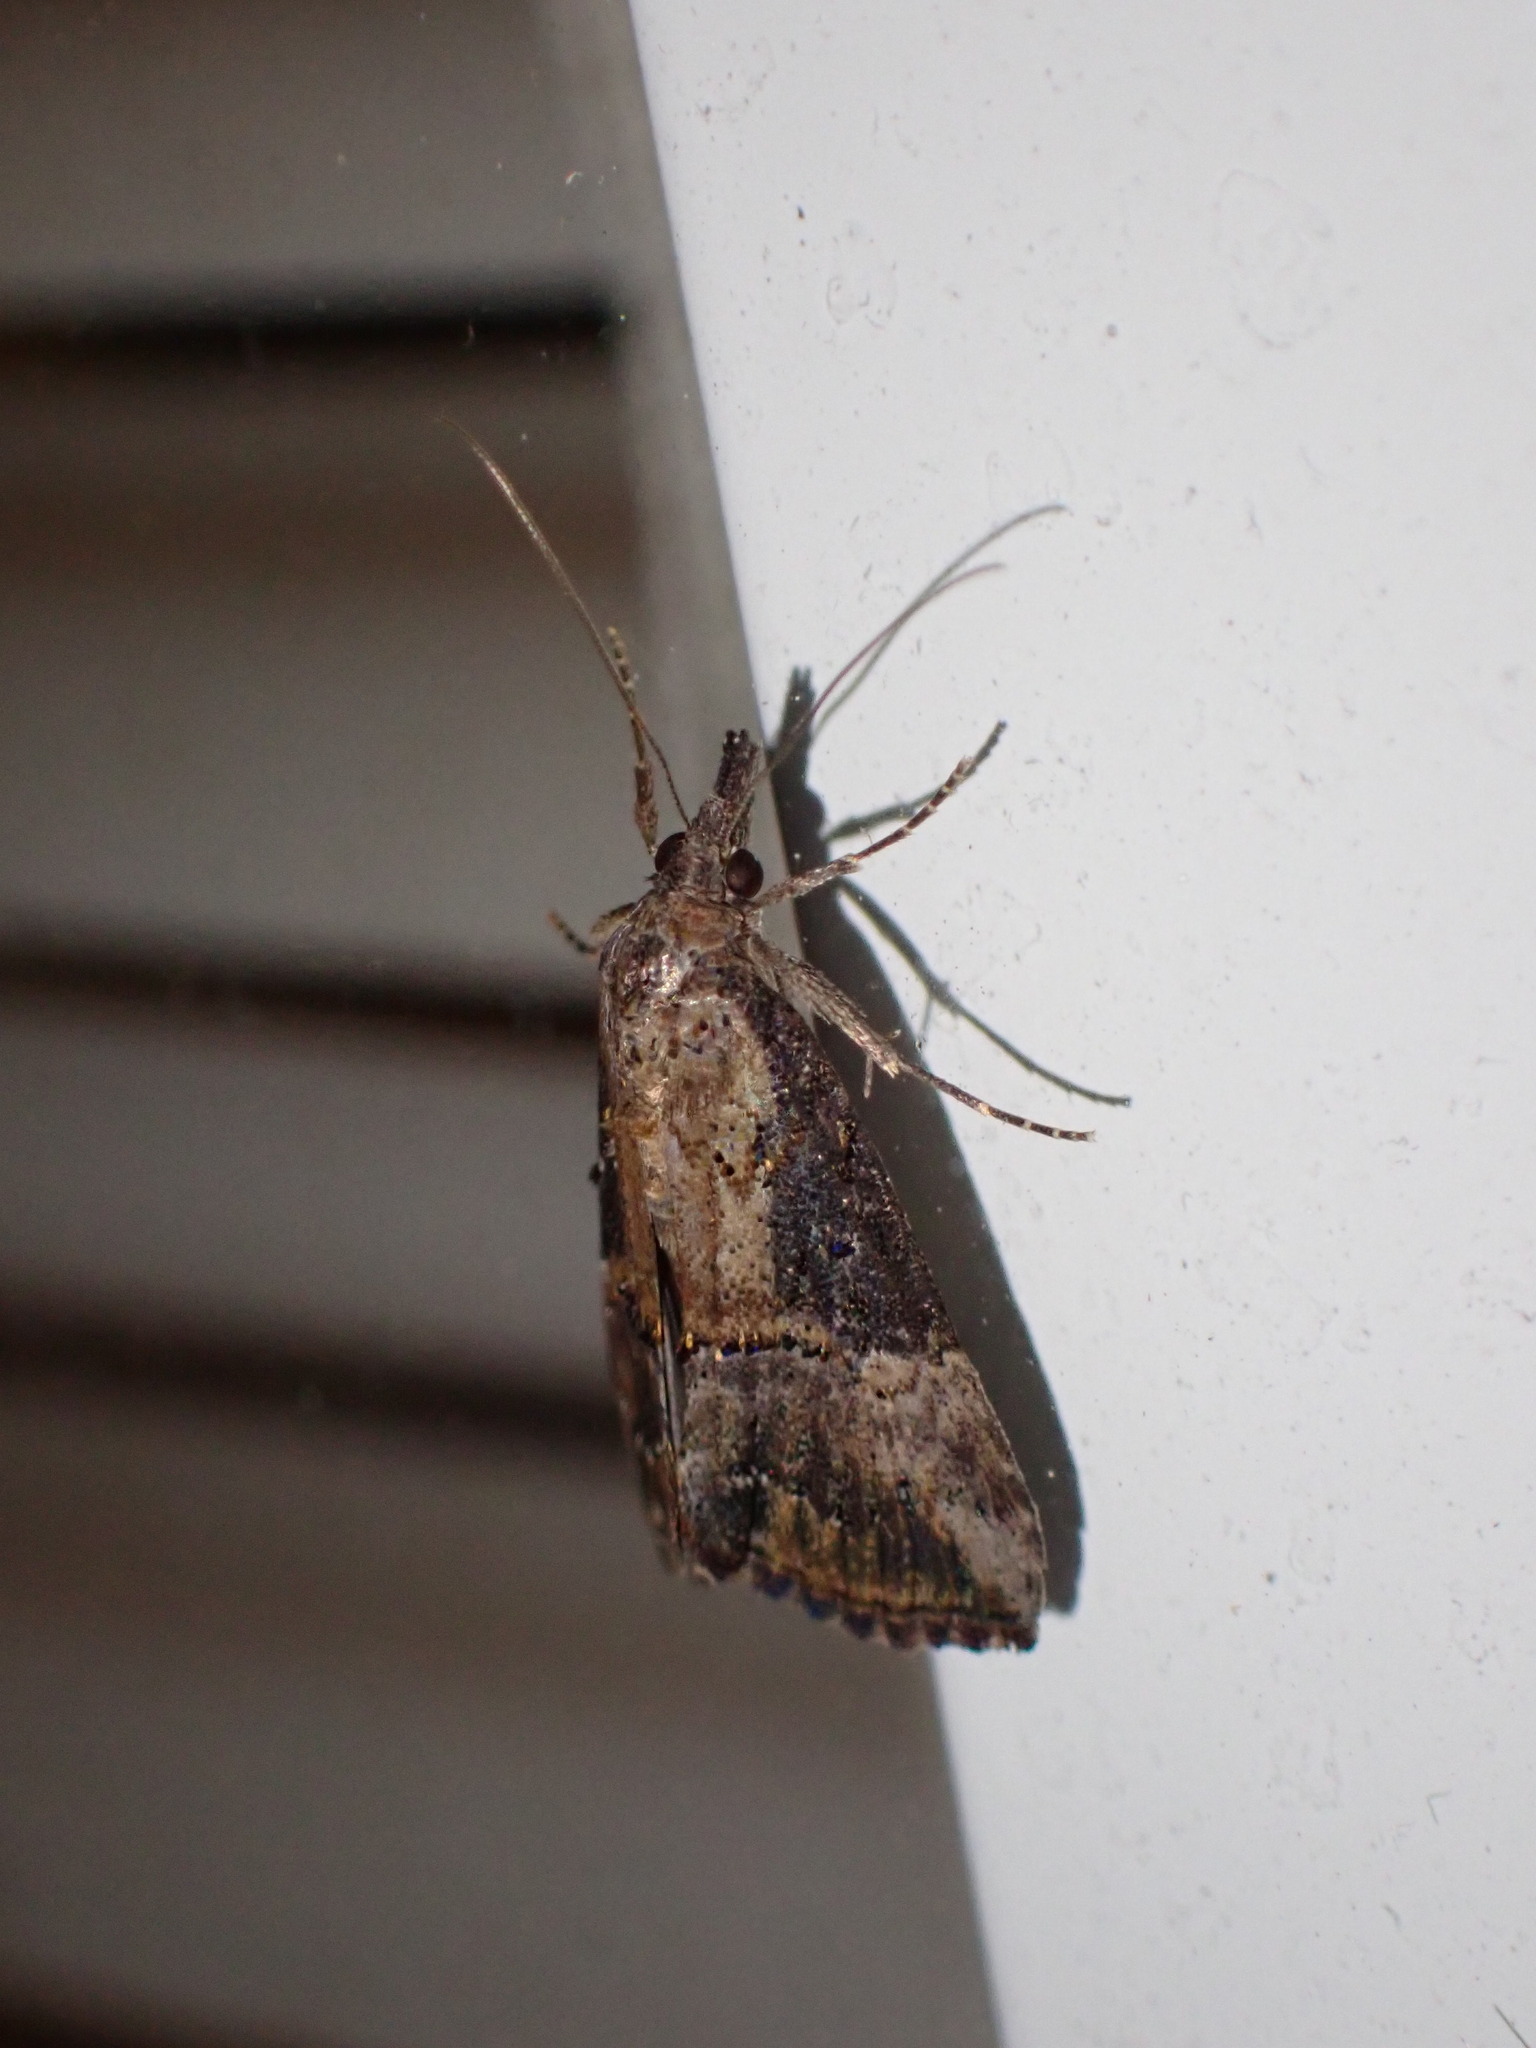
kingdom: Animalia
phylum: Arthropoda
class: Insecta
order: Lepidoptera
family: Erebidae
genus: Hypena
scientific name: Hypena scabra
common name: Green cloverworm
